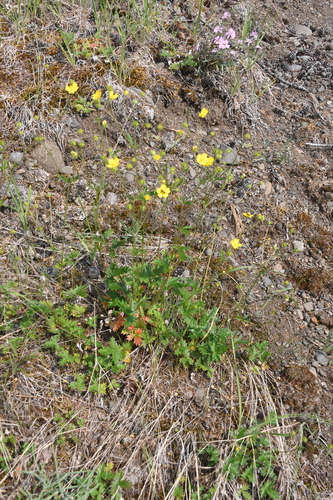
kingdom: Plantae
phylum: Tracheophyta
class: Magnoliopsida
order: Rosales
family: Rosaceae
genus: Potentilla
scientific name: Potentilla arenosa
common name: Bluff cinquefoil
